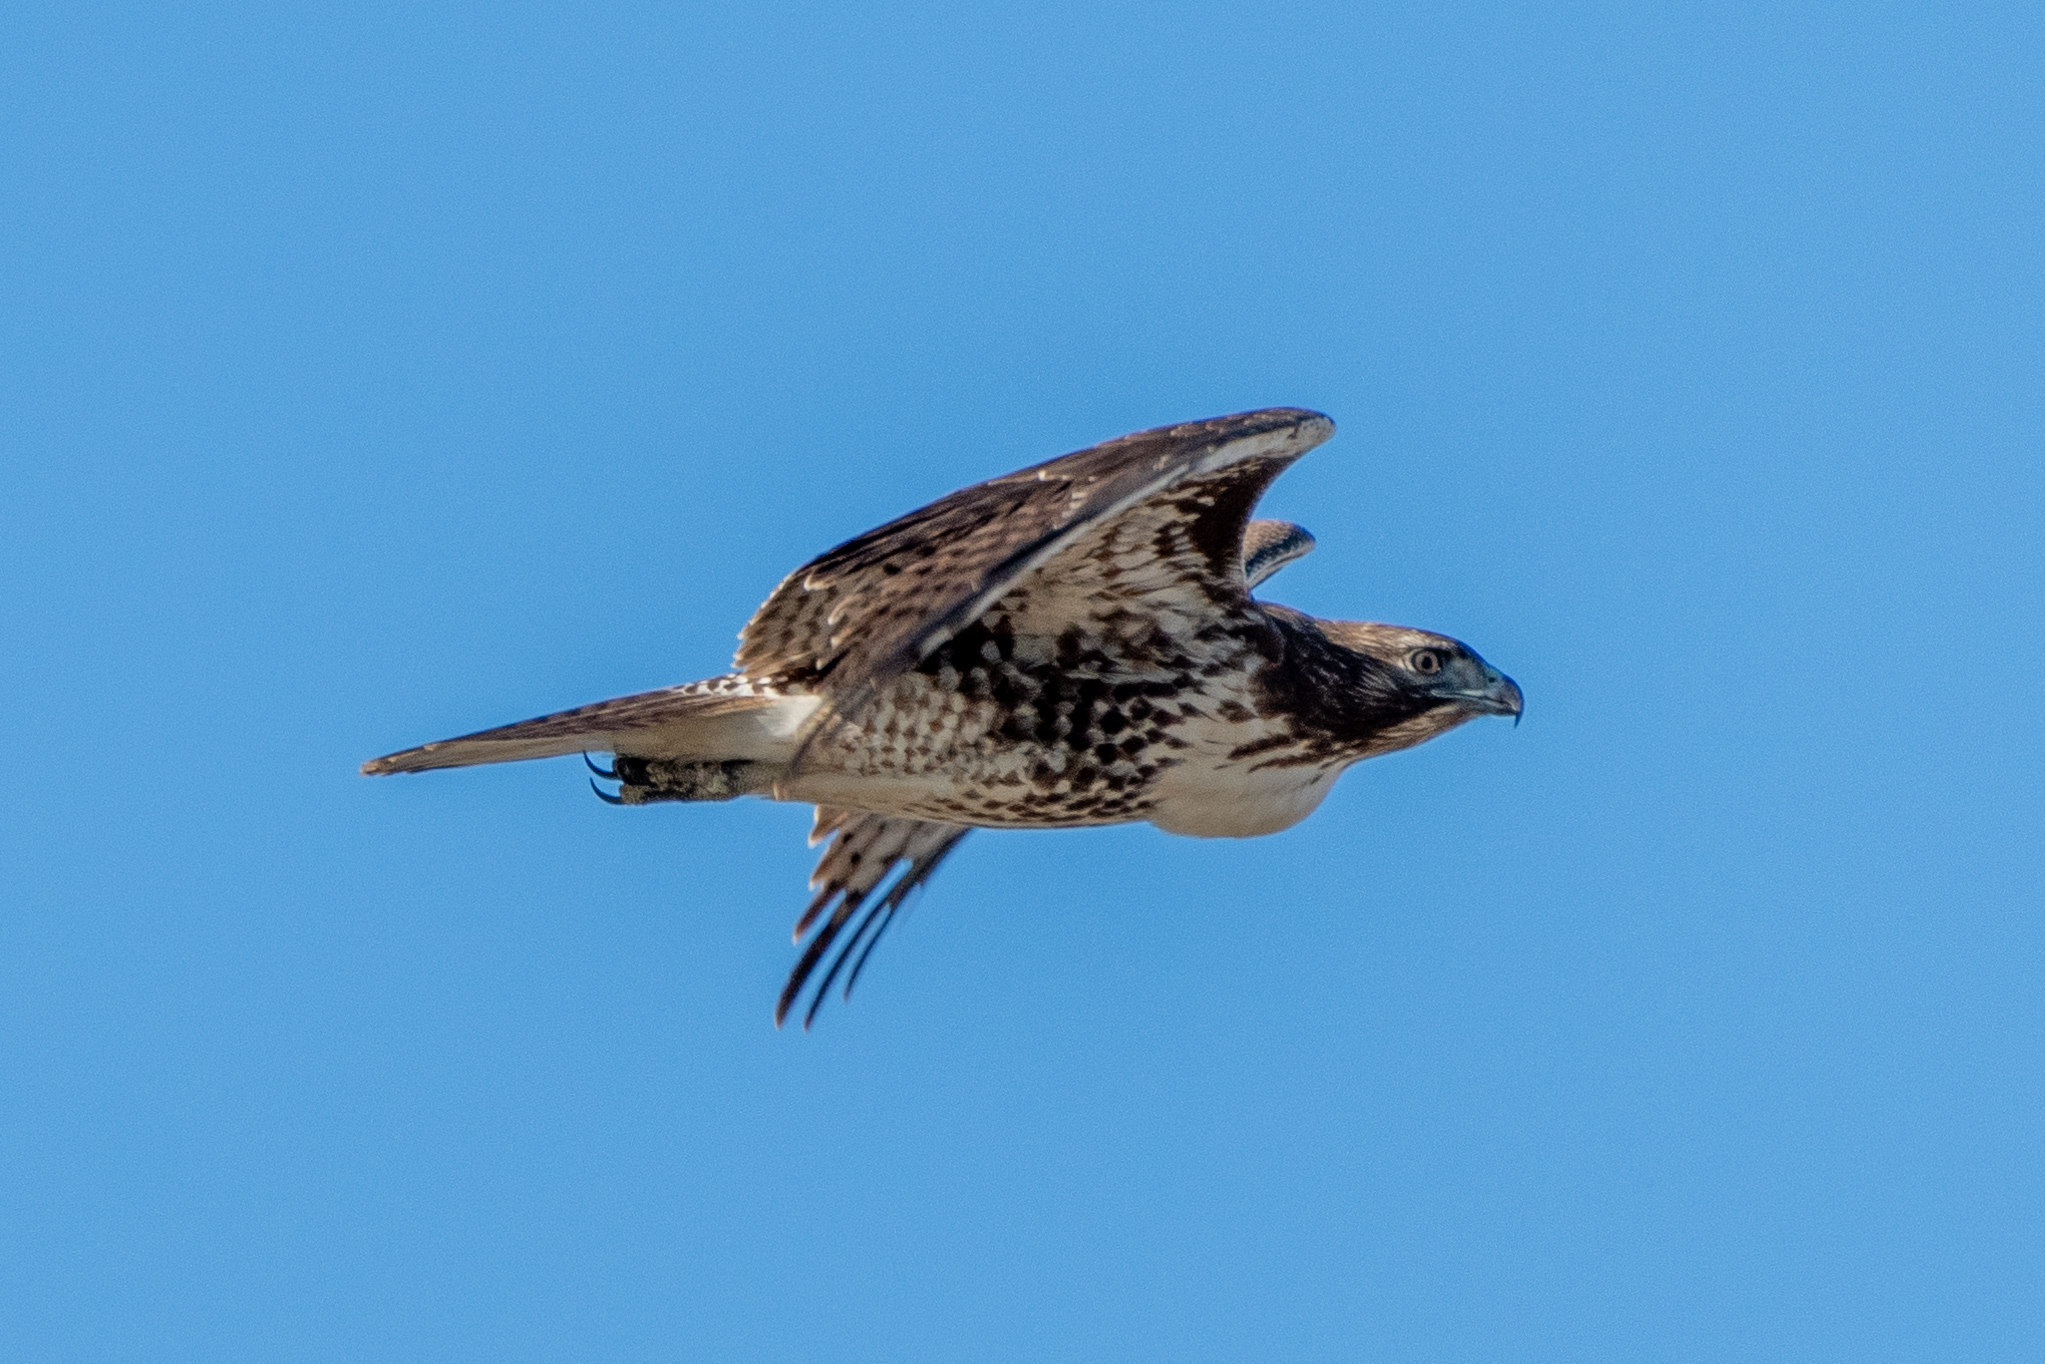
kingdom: Animalia
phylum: Chordata
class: Aves
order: Accipitriformes
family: Accipitridae
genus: Buteo
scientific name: Buteo jamaicensis
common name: Red-tailed hawk
